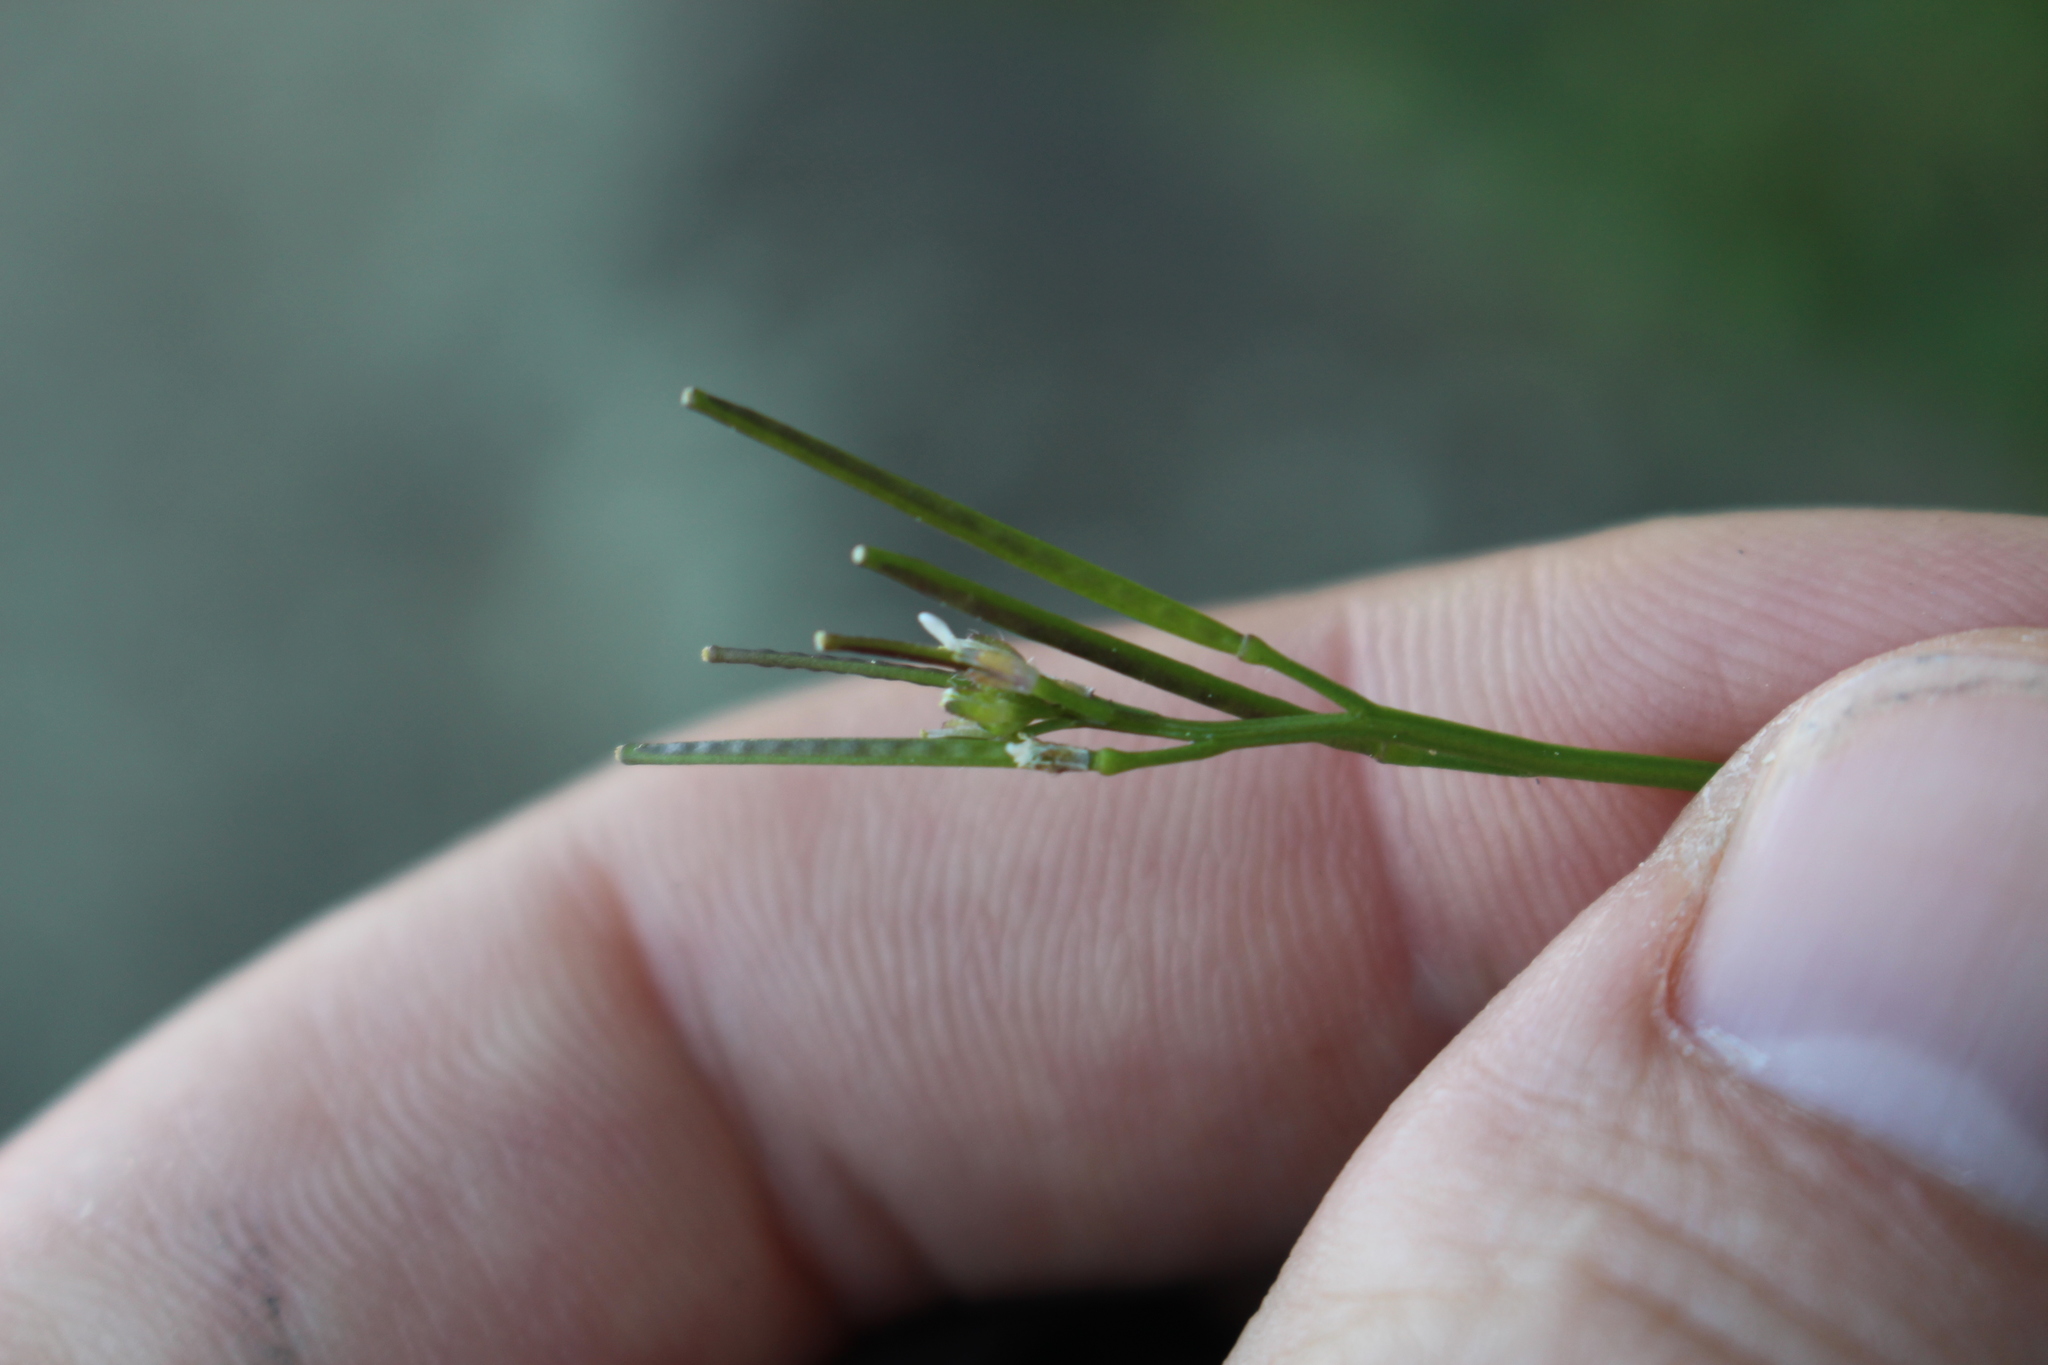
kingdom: Plantae
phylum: Tracheophyta
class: Magnoliopsida
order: Brassicales
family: Brassicaceae
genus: Cardamine
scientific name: Cardamine hirsuta
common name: Hairy bittercress
